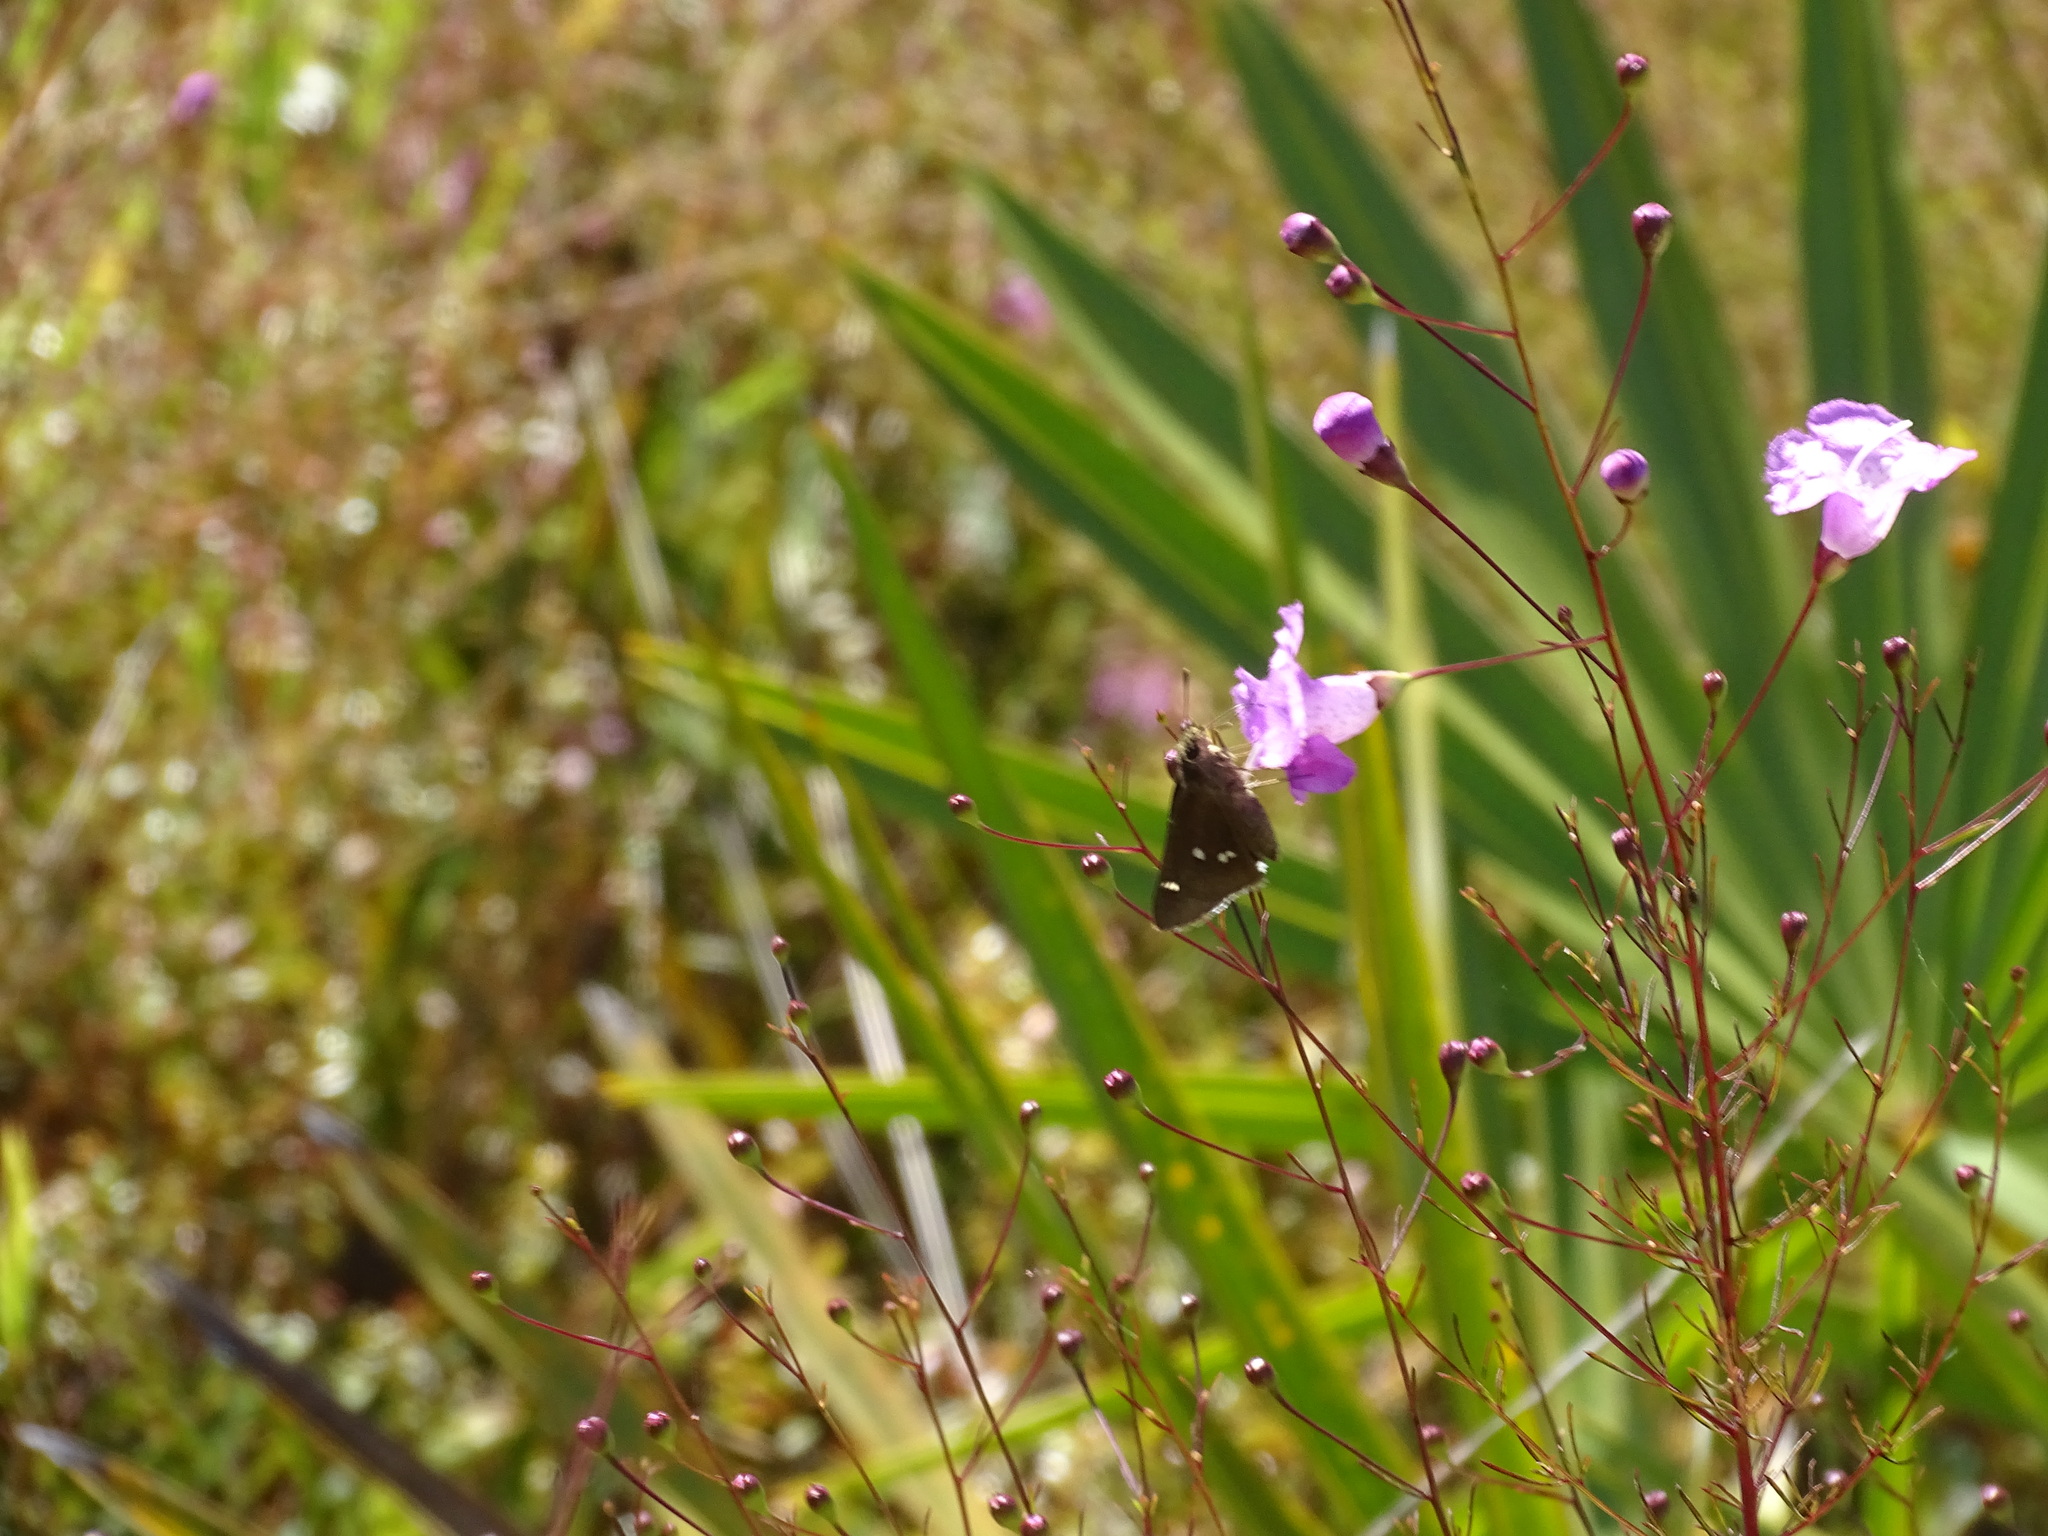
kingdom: Animalia
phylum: Arthropoda
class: Insecta
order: Lepidoptera
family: Hesperiidae
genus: Oligoria
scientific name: Oligoria maculata
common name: Twin-spot skipper
